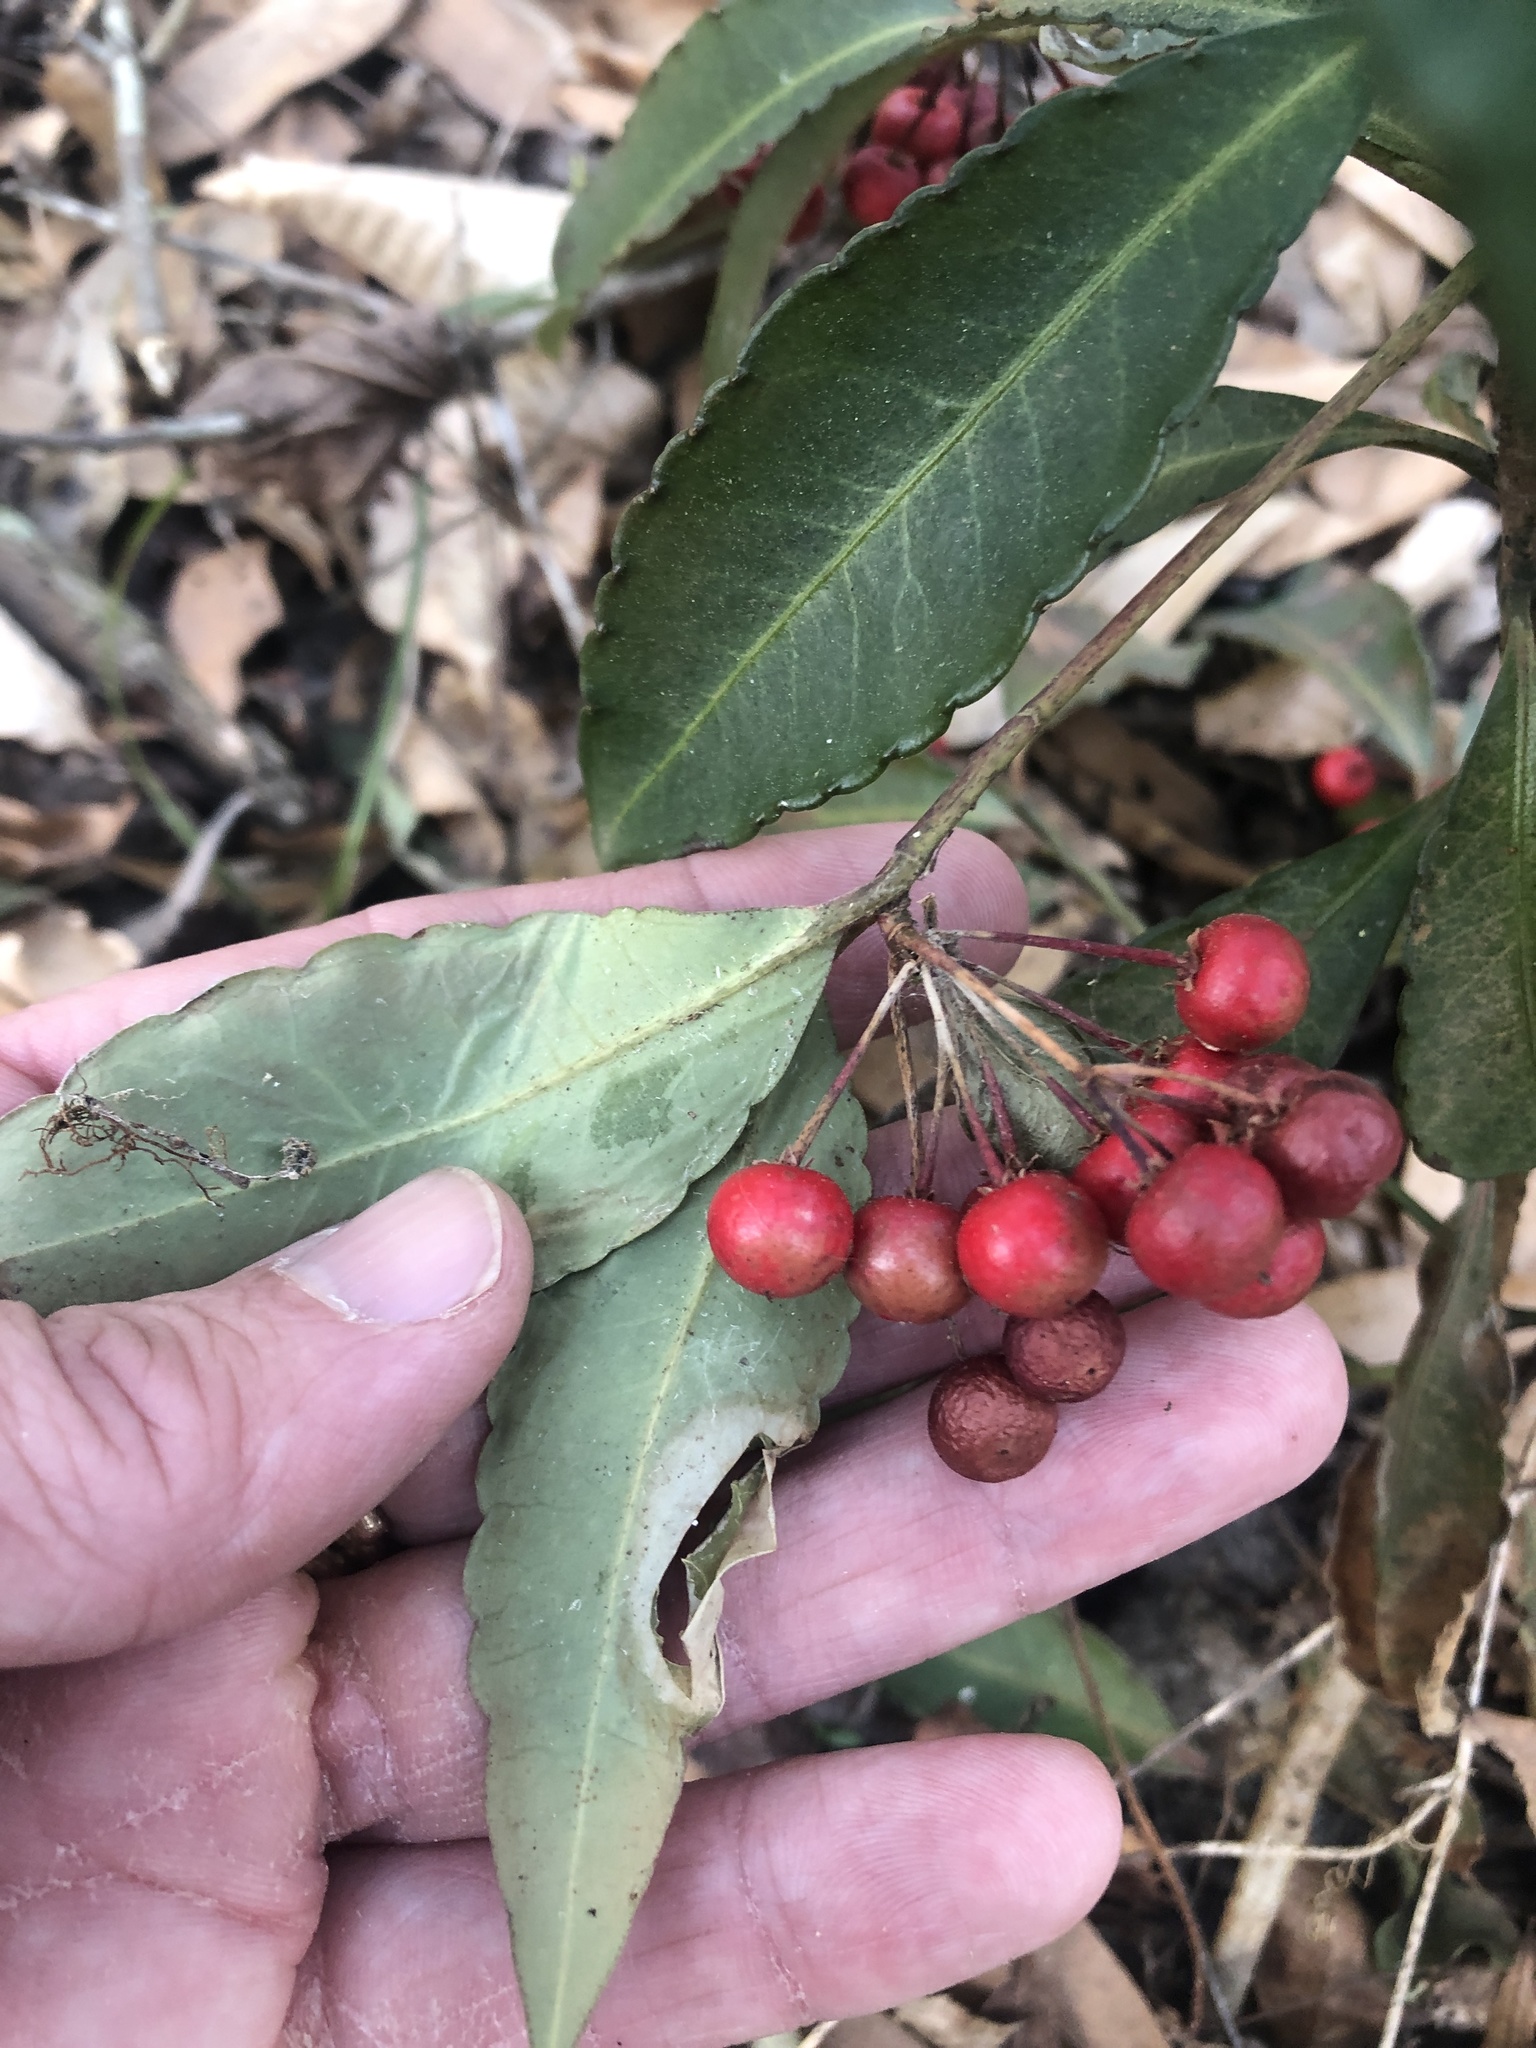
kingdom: Plantae
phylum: Tracheophyta
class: Magnoliopsida
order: Ericales
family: Primulaceae
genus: Ardisia
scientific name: Ardisia crenata
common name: Hen's eyes
